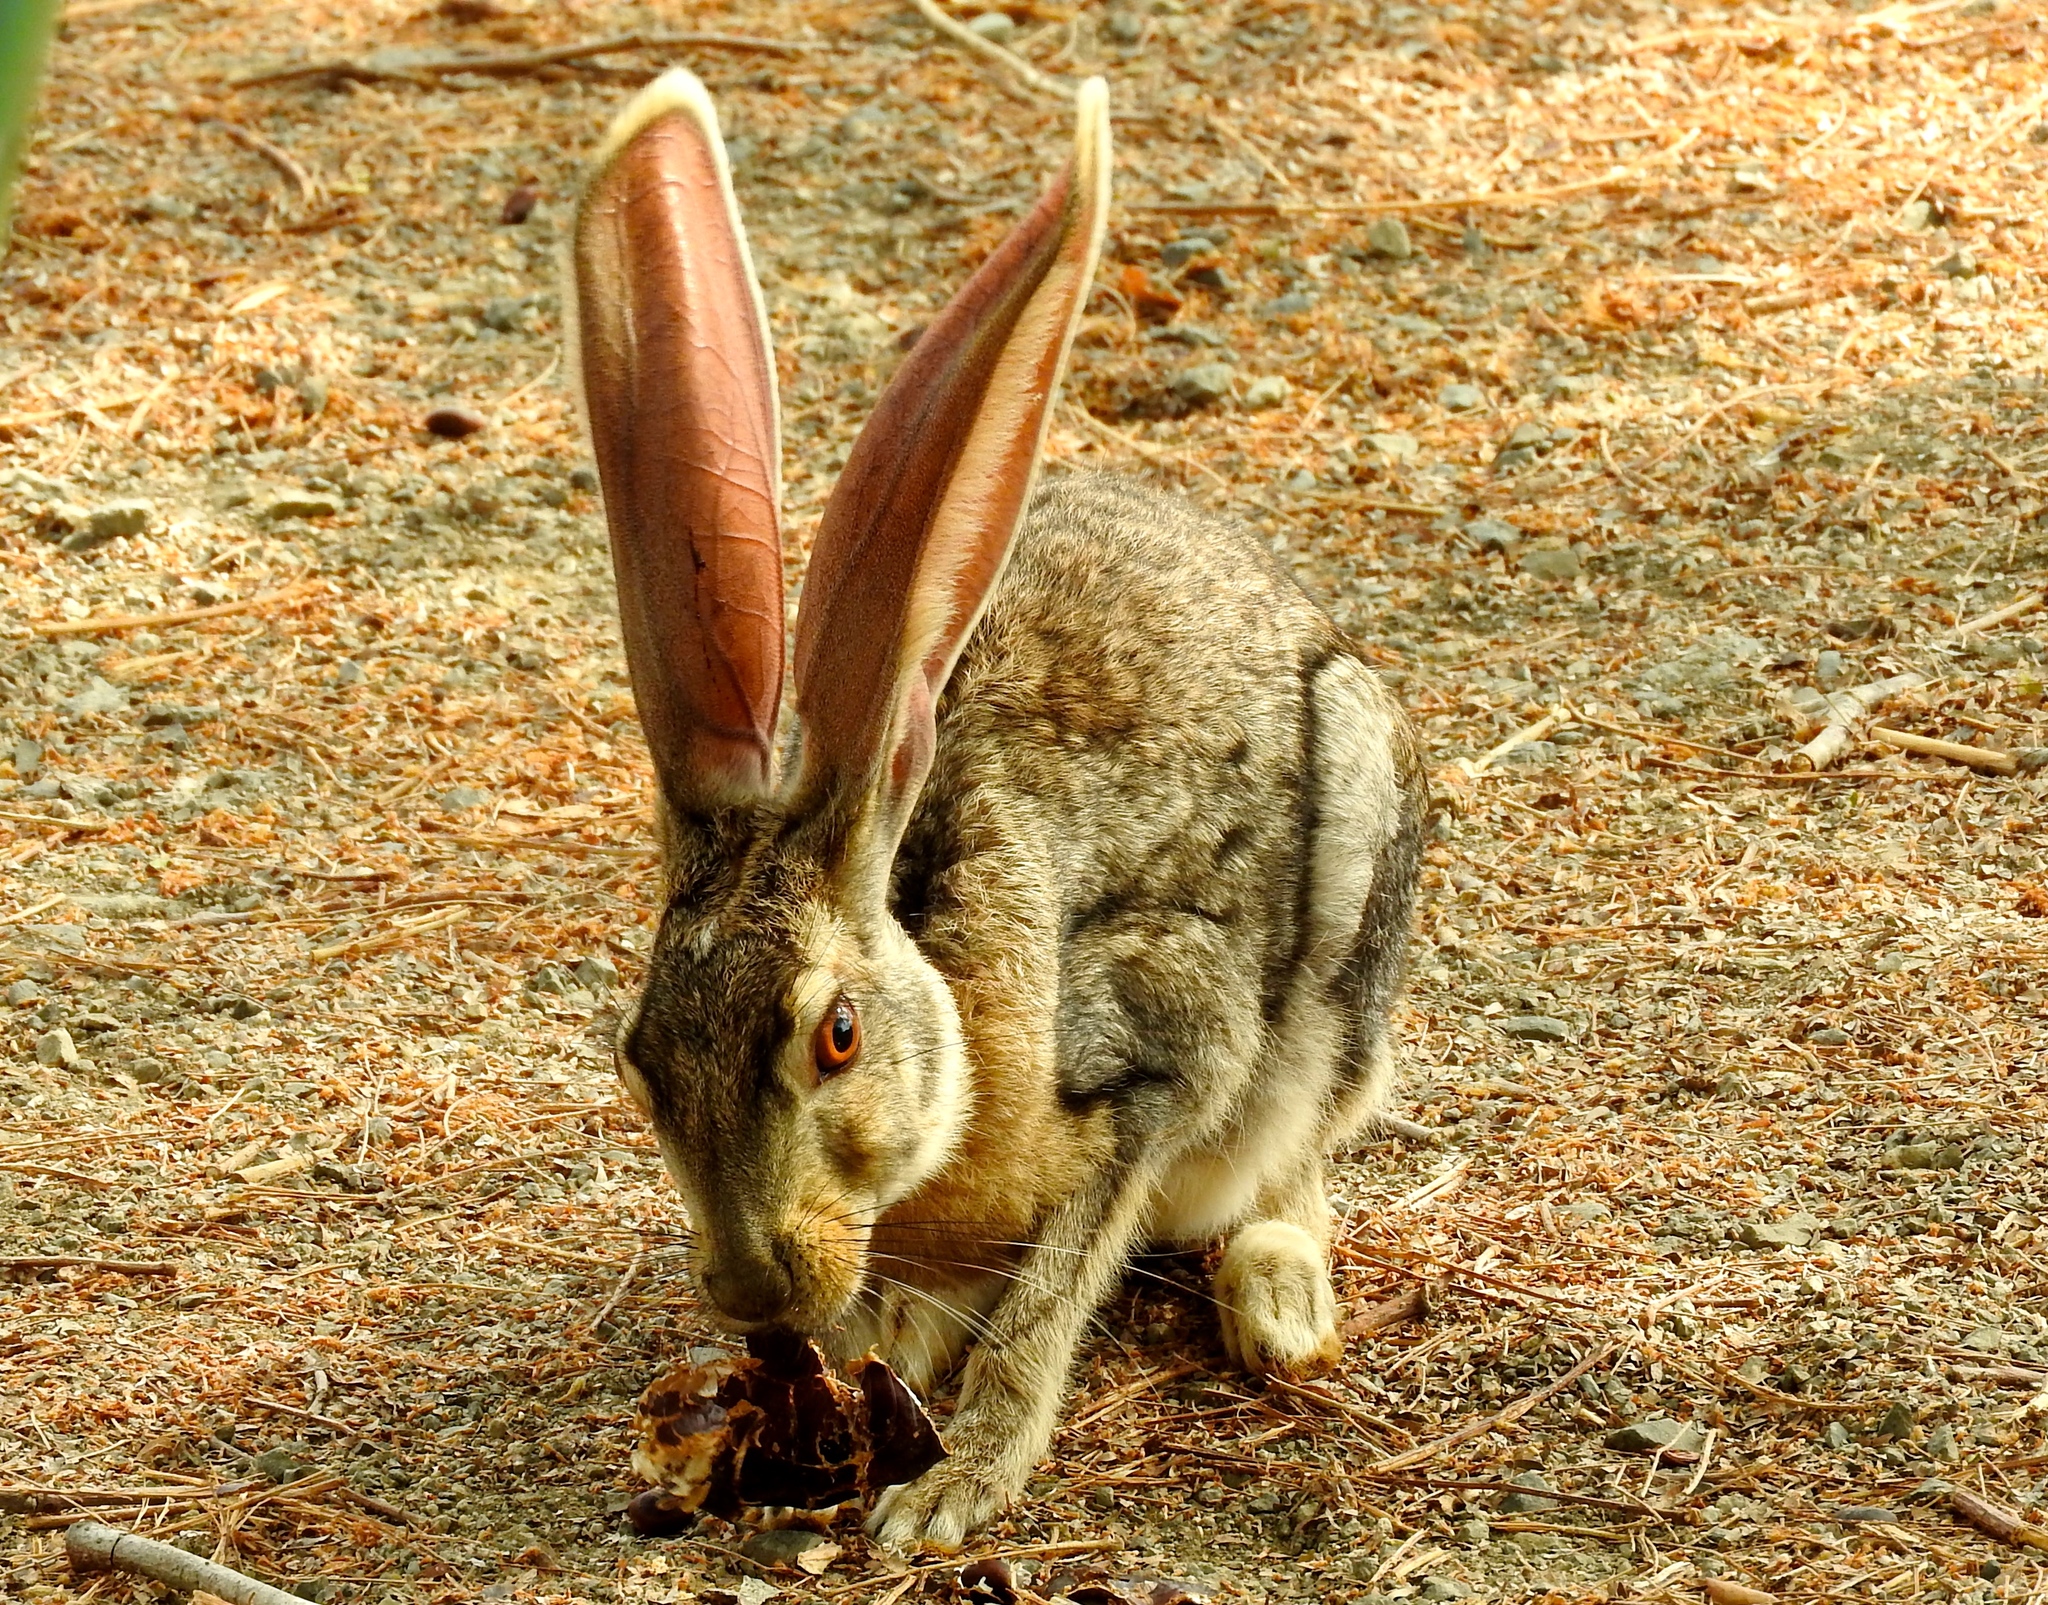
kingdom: Animalia
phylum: Chordata
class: Mammalia
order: Lagomorpha
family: Leporidae
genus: Lepus
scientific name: Lepus alleni
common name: Antelope jackrabbit
